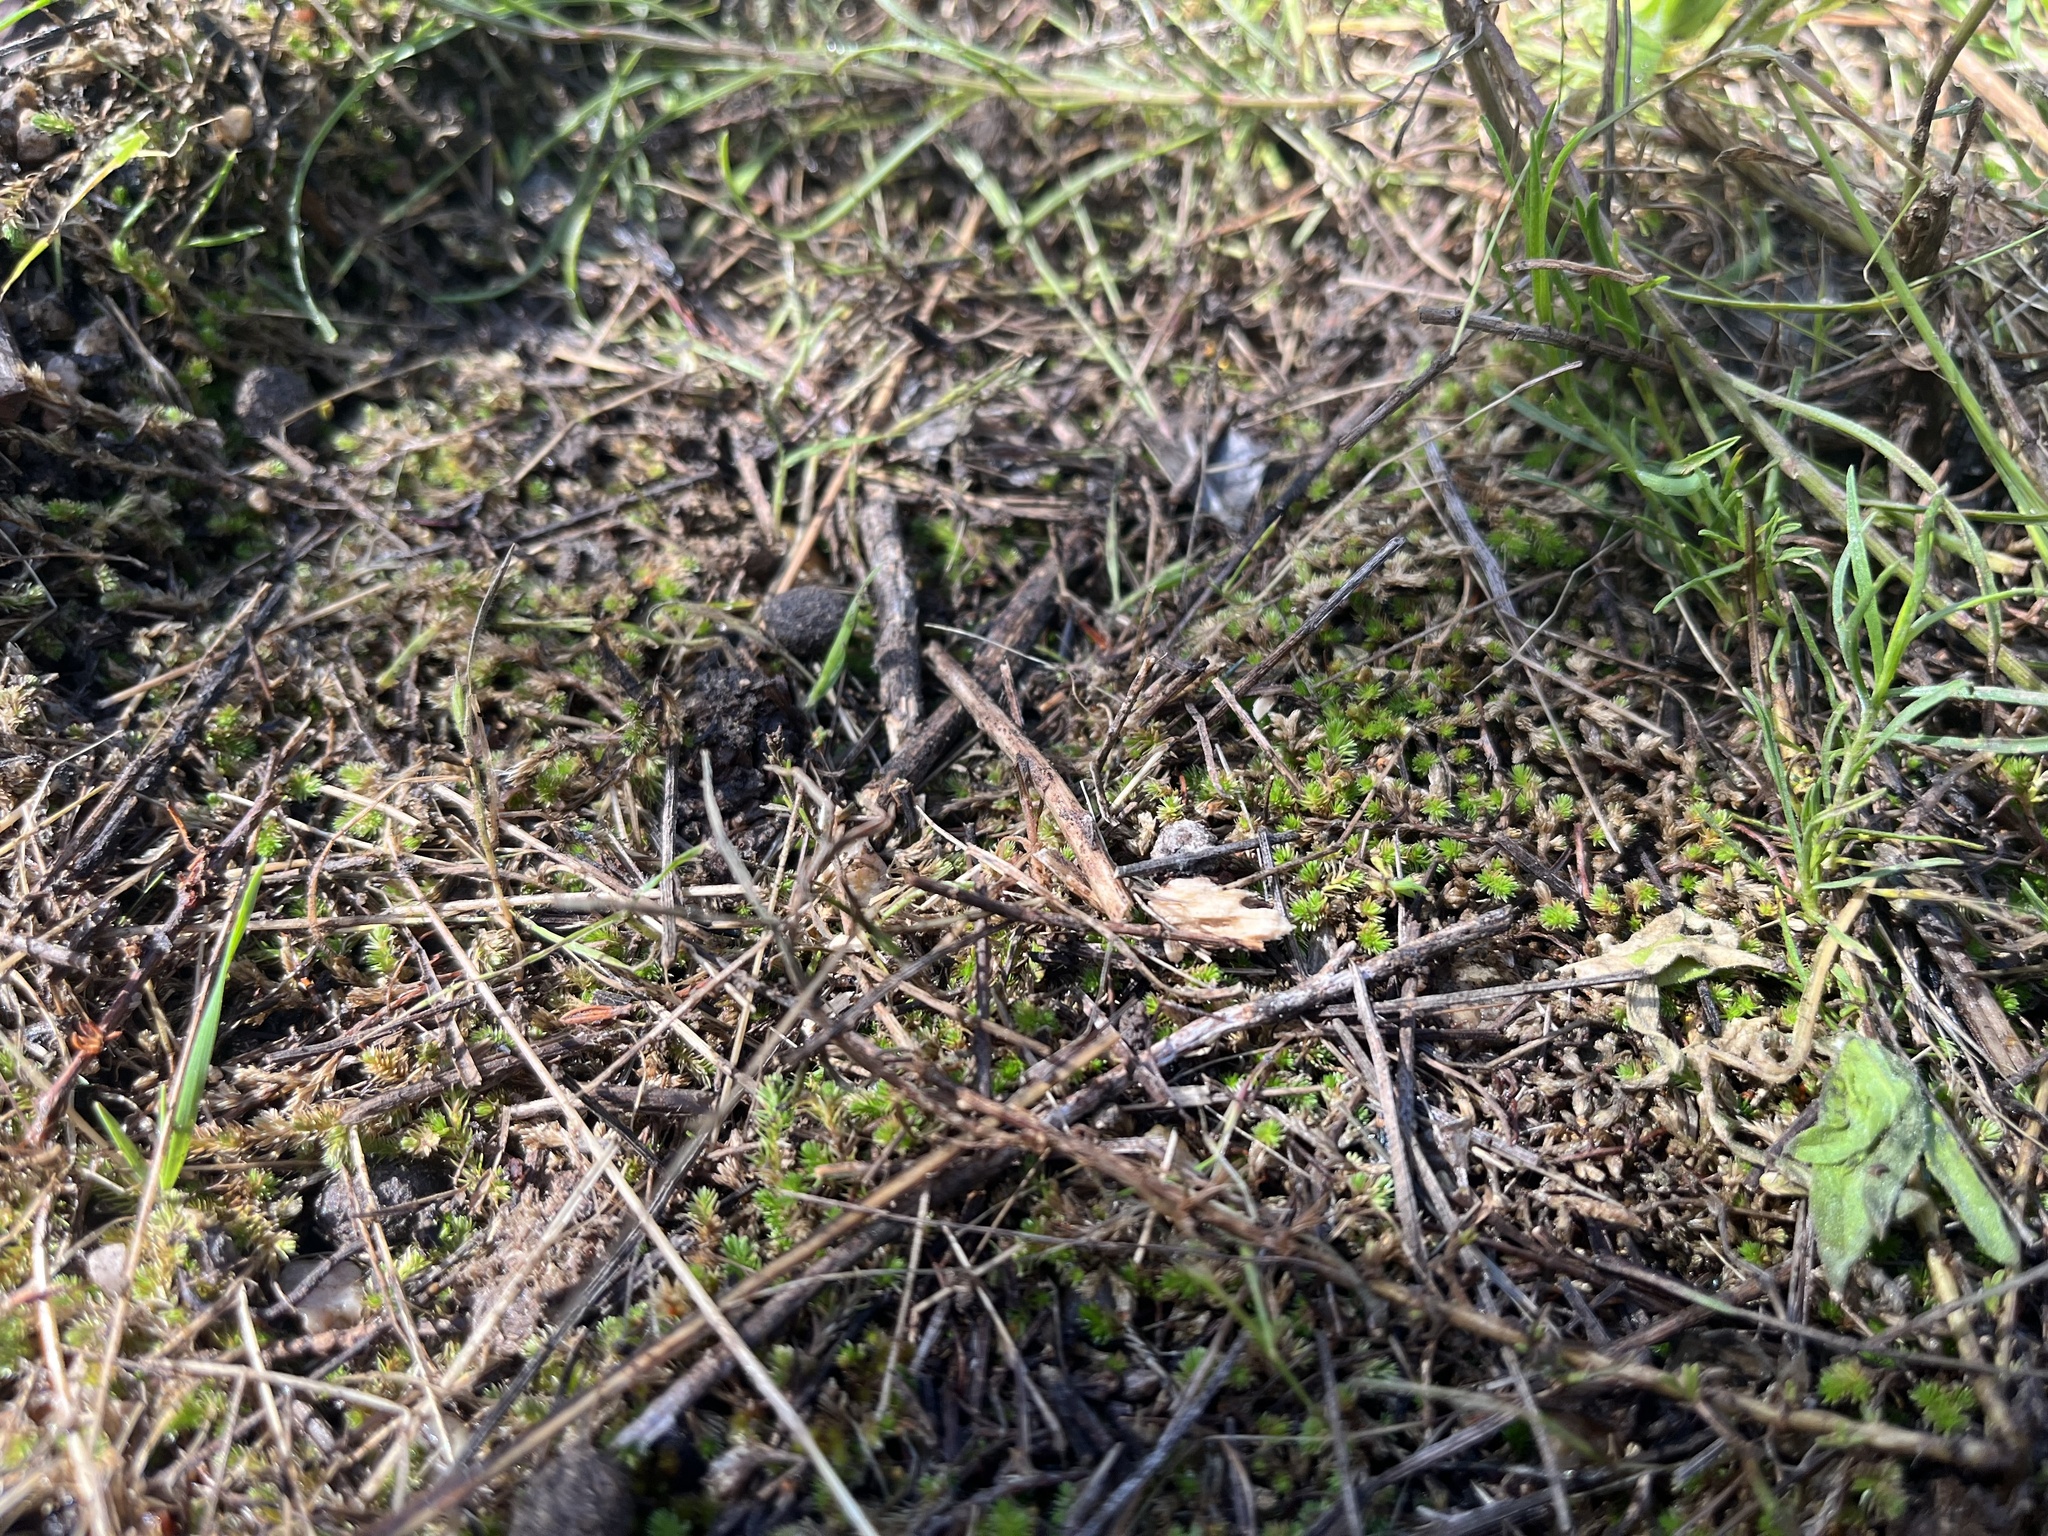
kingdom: Plantae
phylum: Tracheophyta
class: Lycopodiopsida
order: Selaginellales
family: Selaginellaceae
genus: Selaginella
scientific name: Selaginella cinerascens
